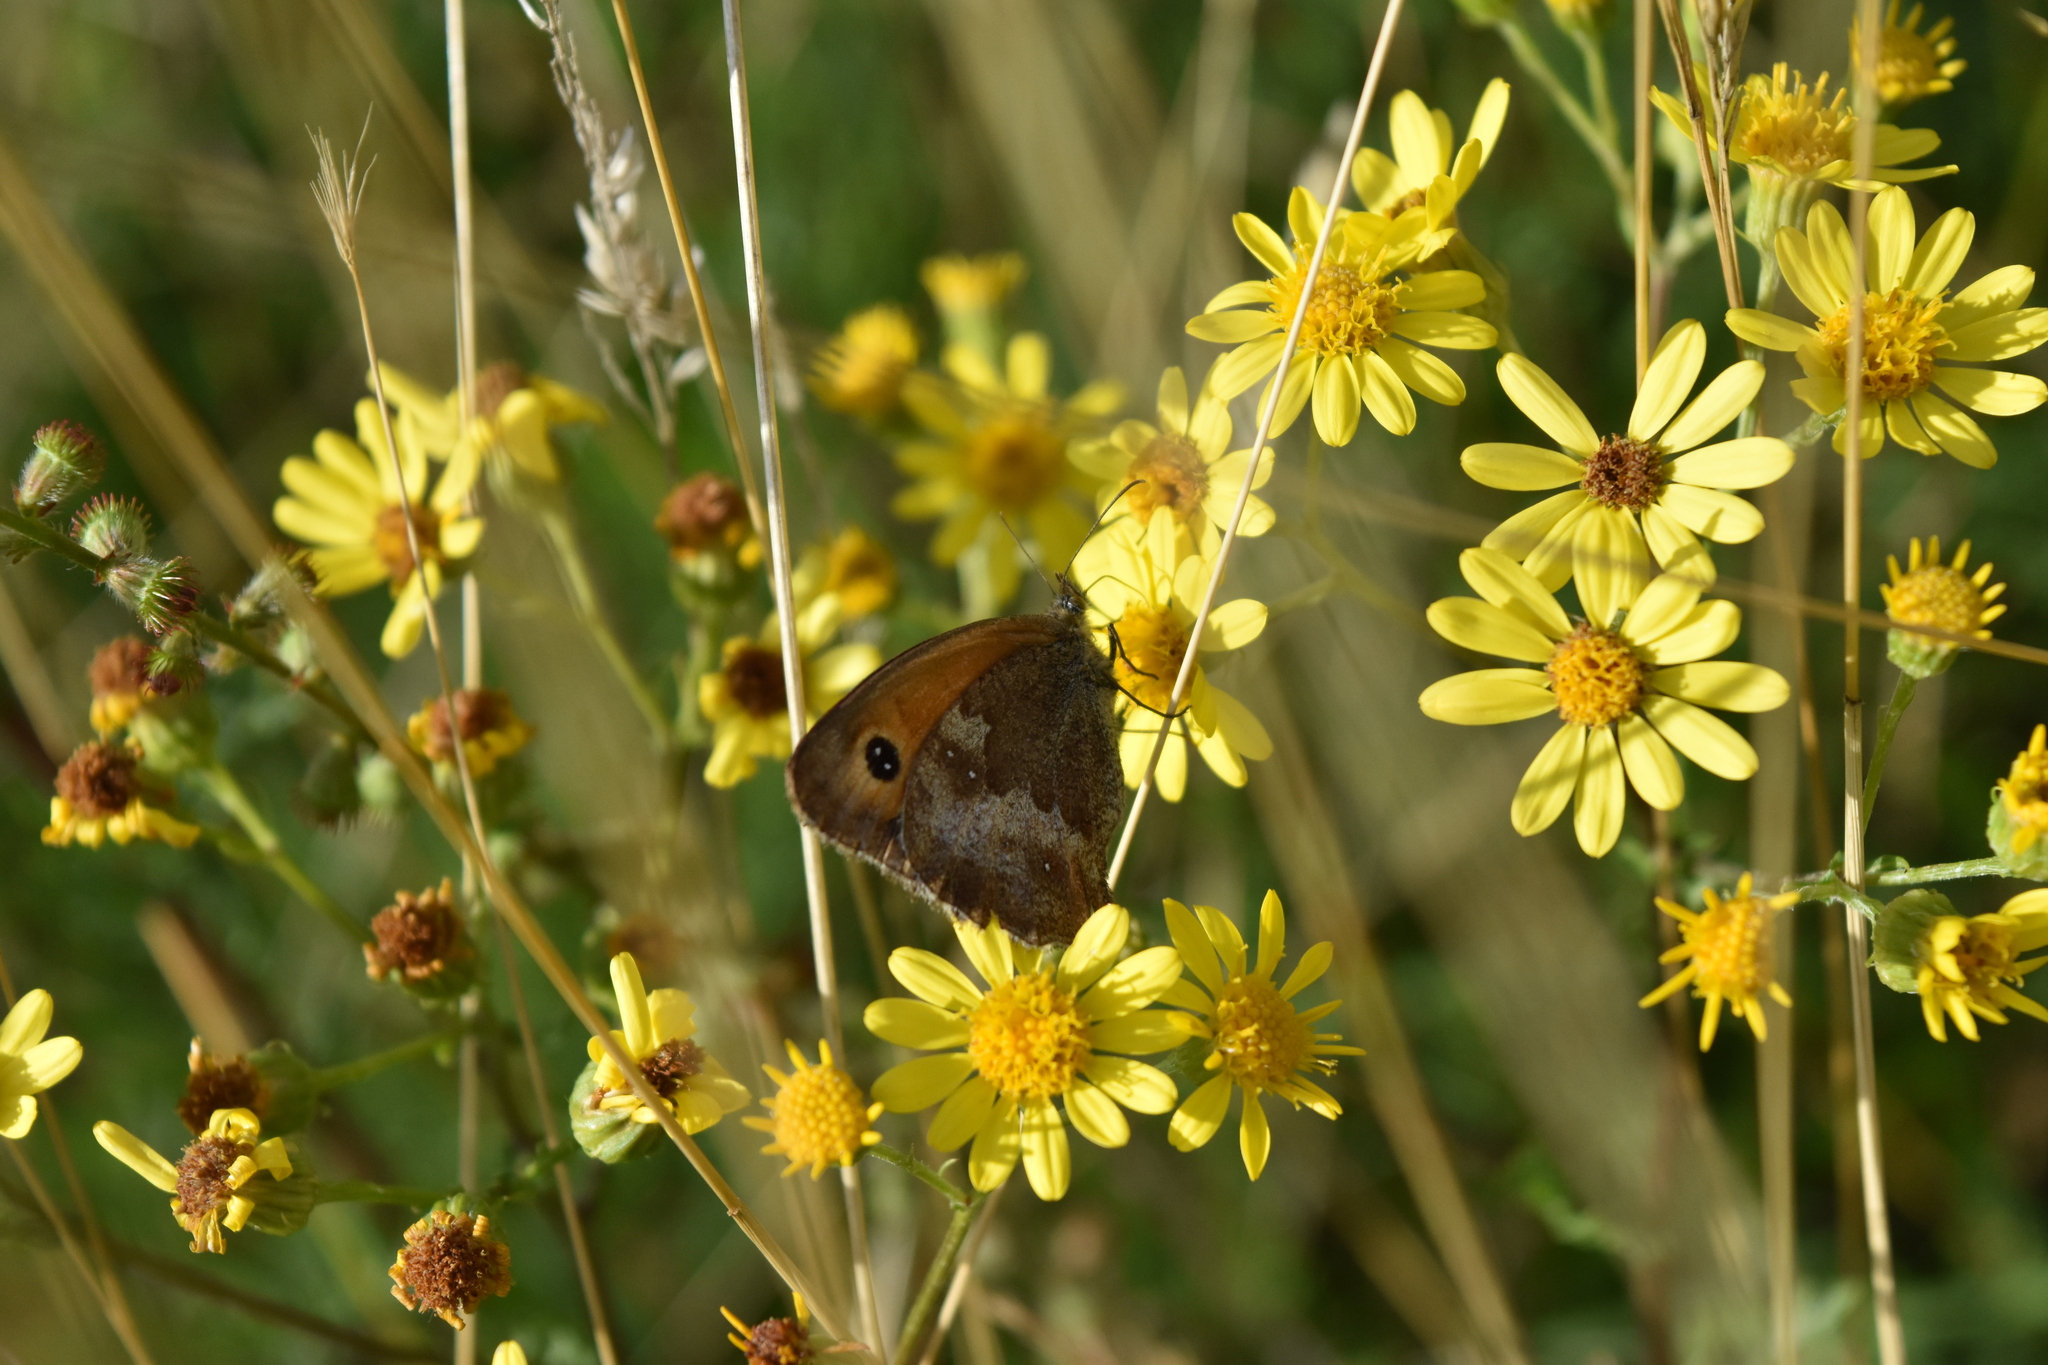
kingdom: Animalia
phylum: Arthropoda
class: Insecta
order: Lepidoptera
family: Nymphalidae
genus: Pyronia
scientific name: Pyronia tithonus
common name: Gatekeeper
